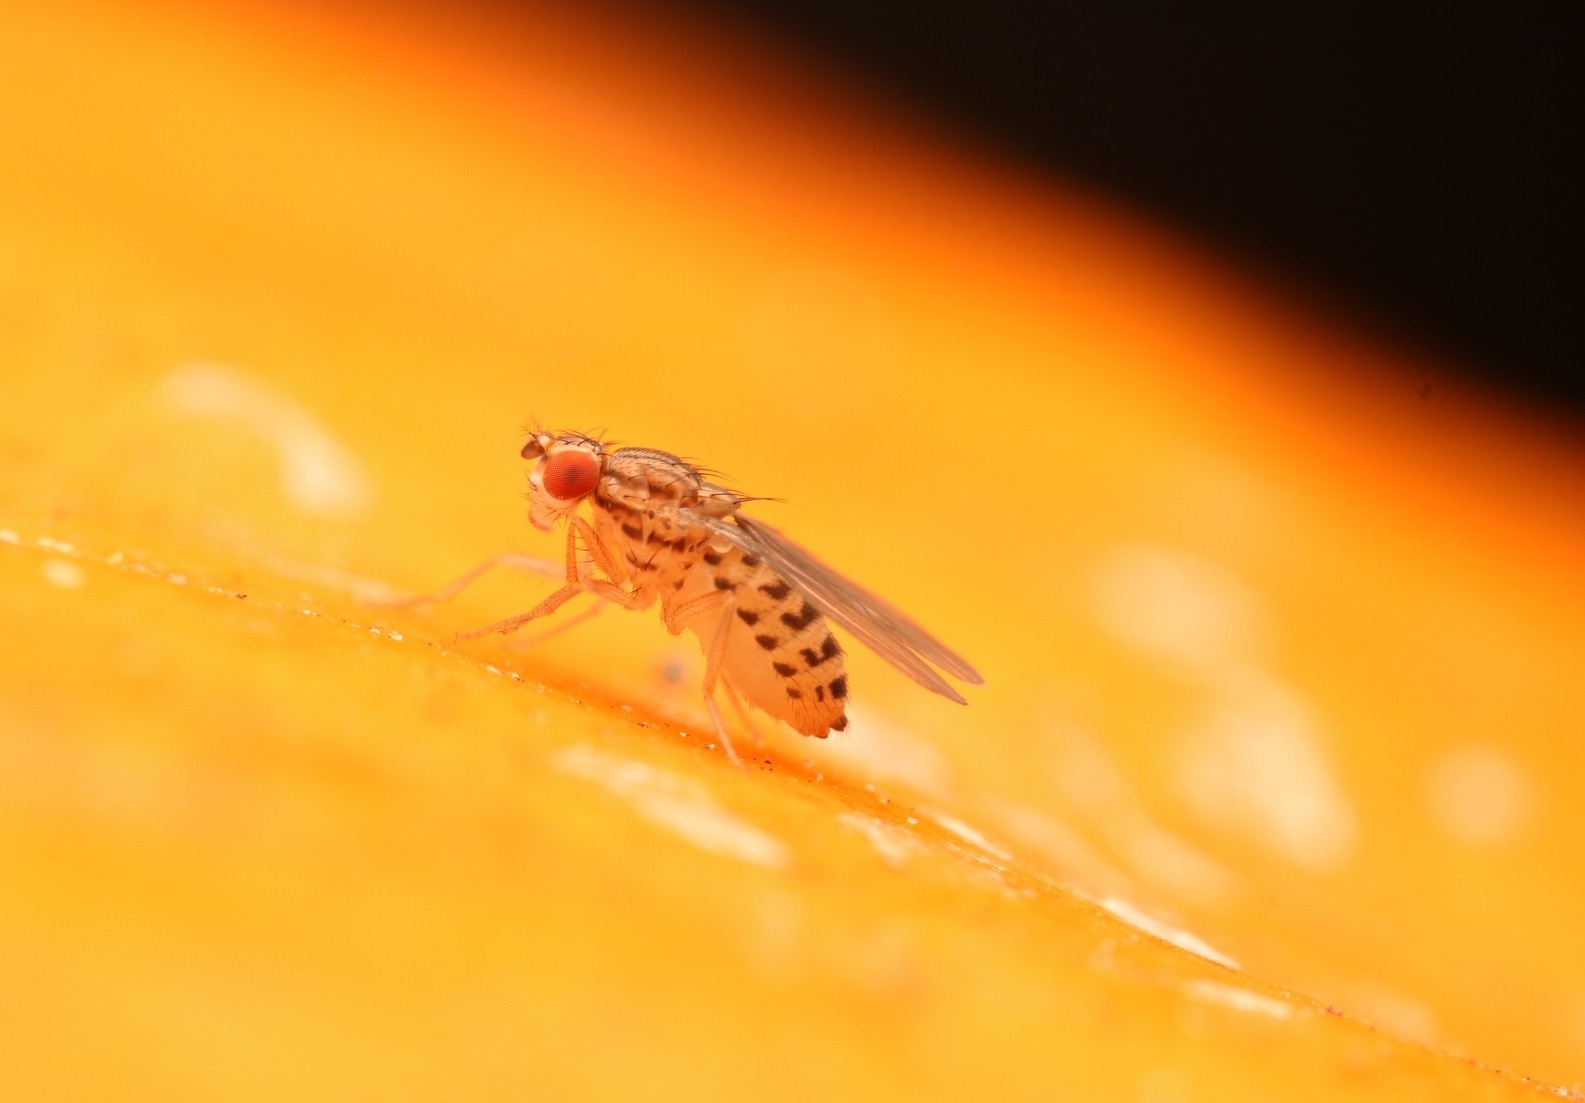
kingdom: Animalia
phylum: Arthropoda
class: Insecta
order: Diptera
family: Drosophilidae
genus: Drosophila
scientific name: Drosophila busckii
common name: Pomace fly
